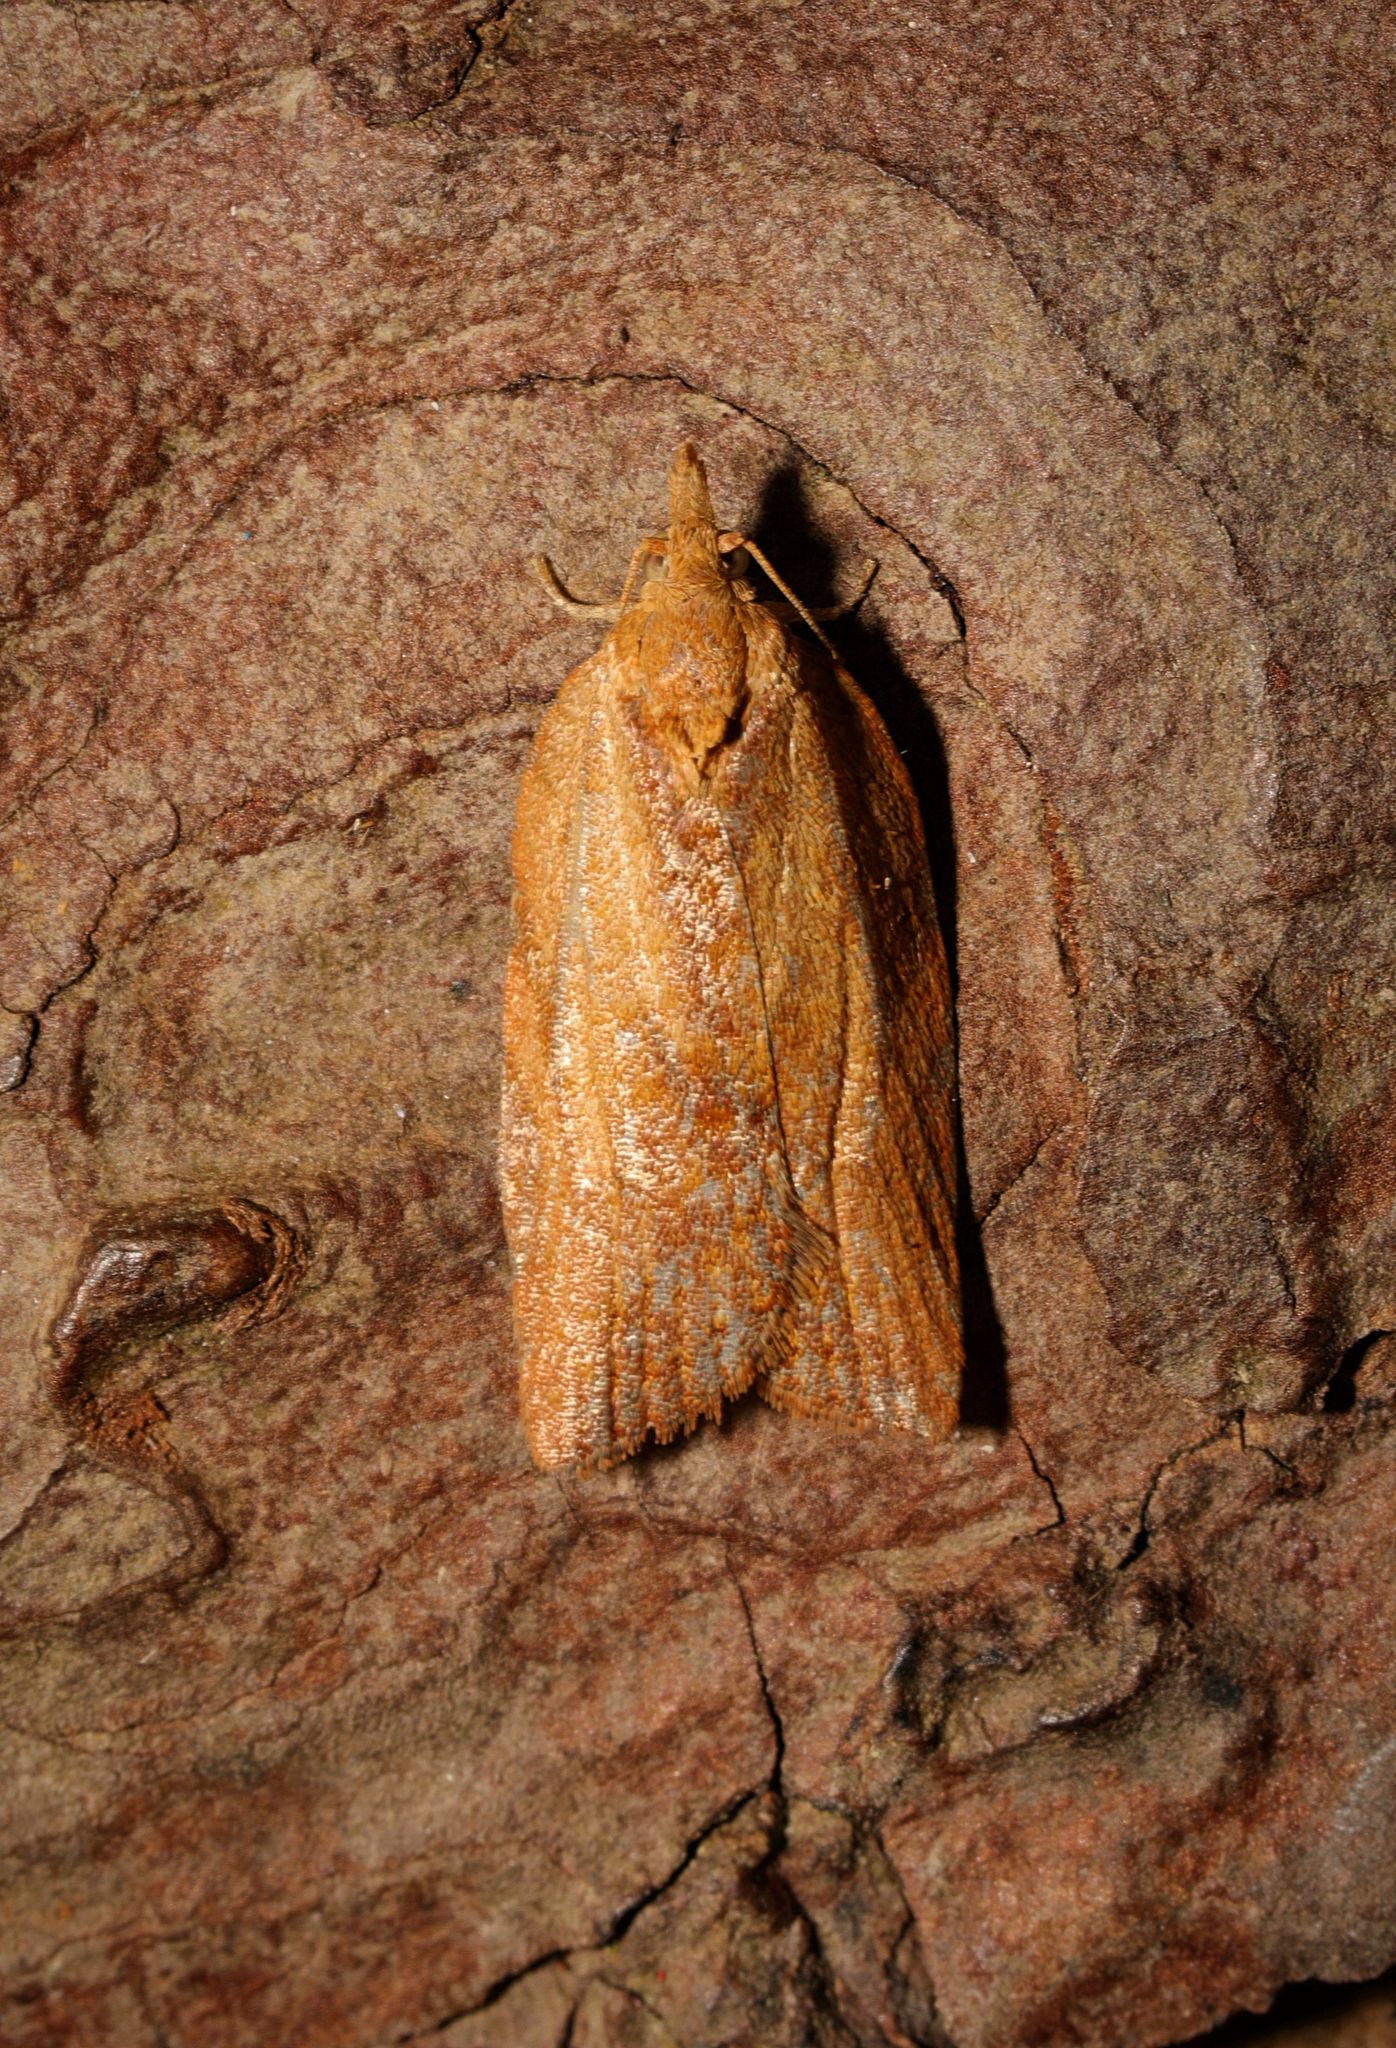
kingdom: Animalia
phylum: Arthropoda
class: Insecta
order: Lepidoptera
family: Tortricidae
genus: Epiphyas
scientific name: Epiphyas postvittana
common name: Light brown apple moth
